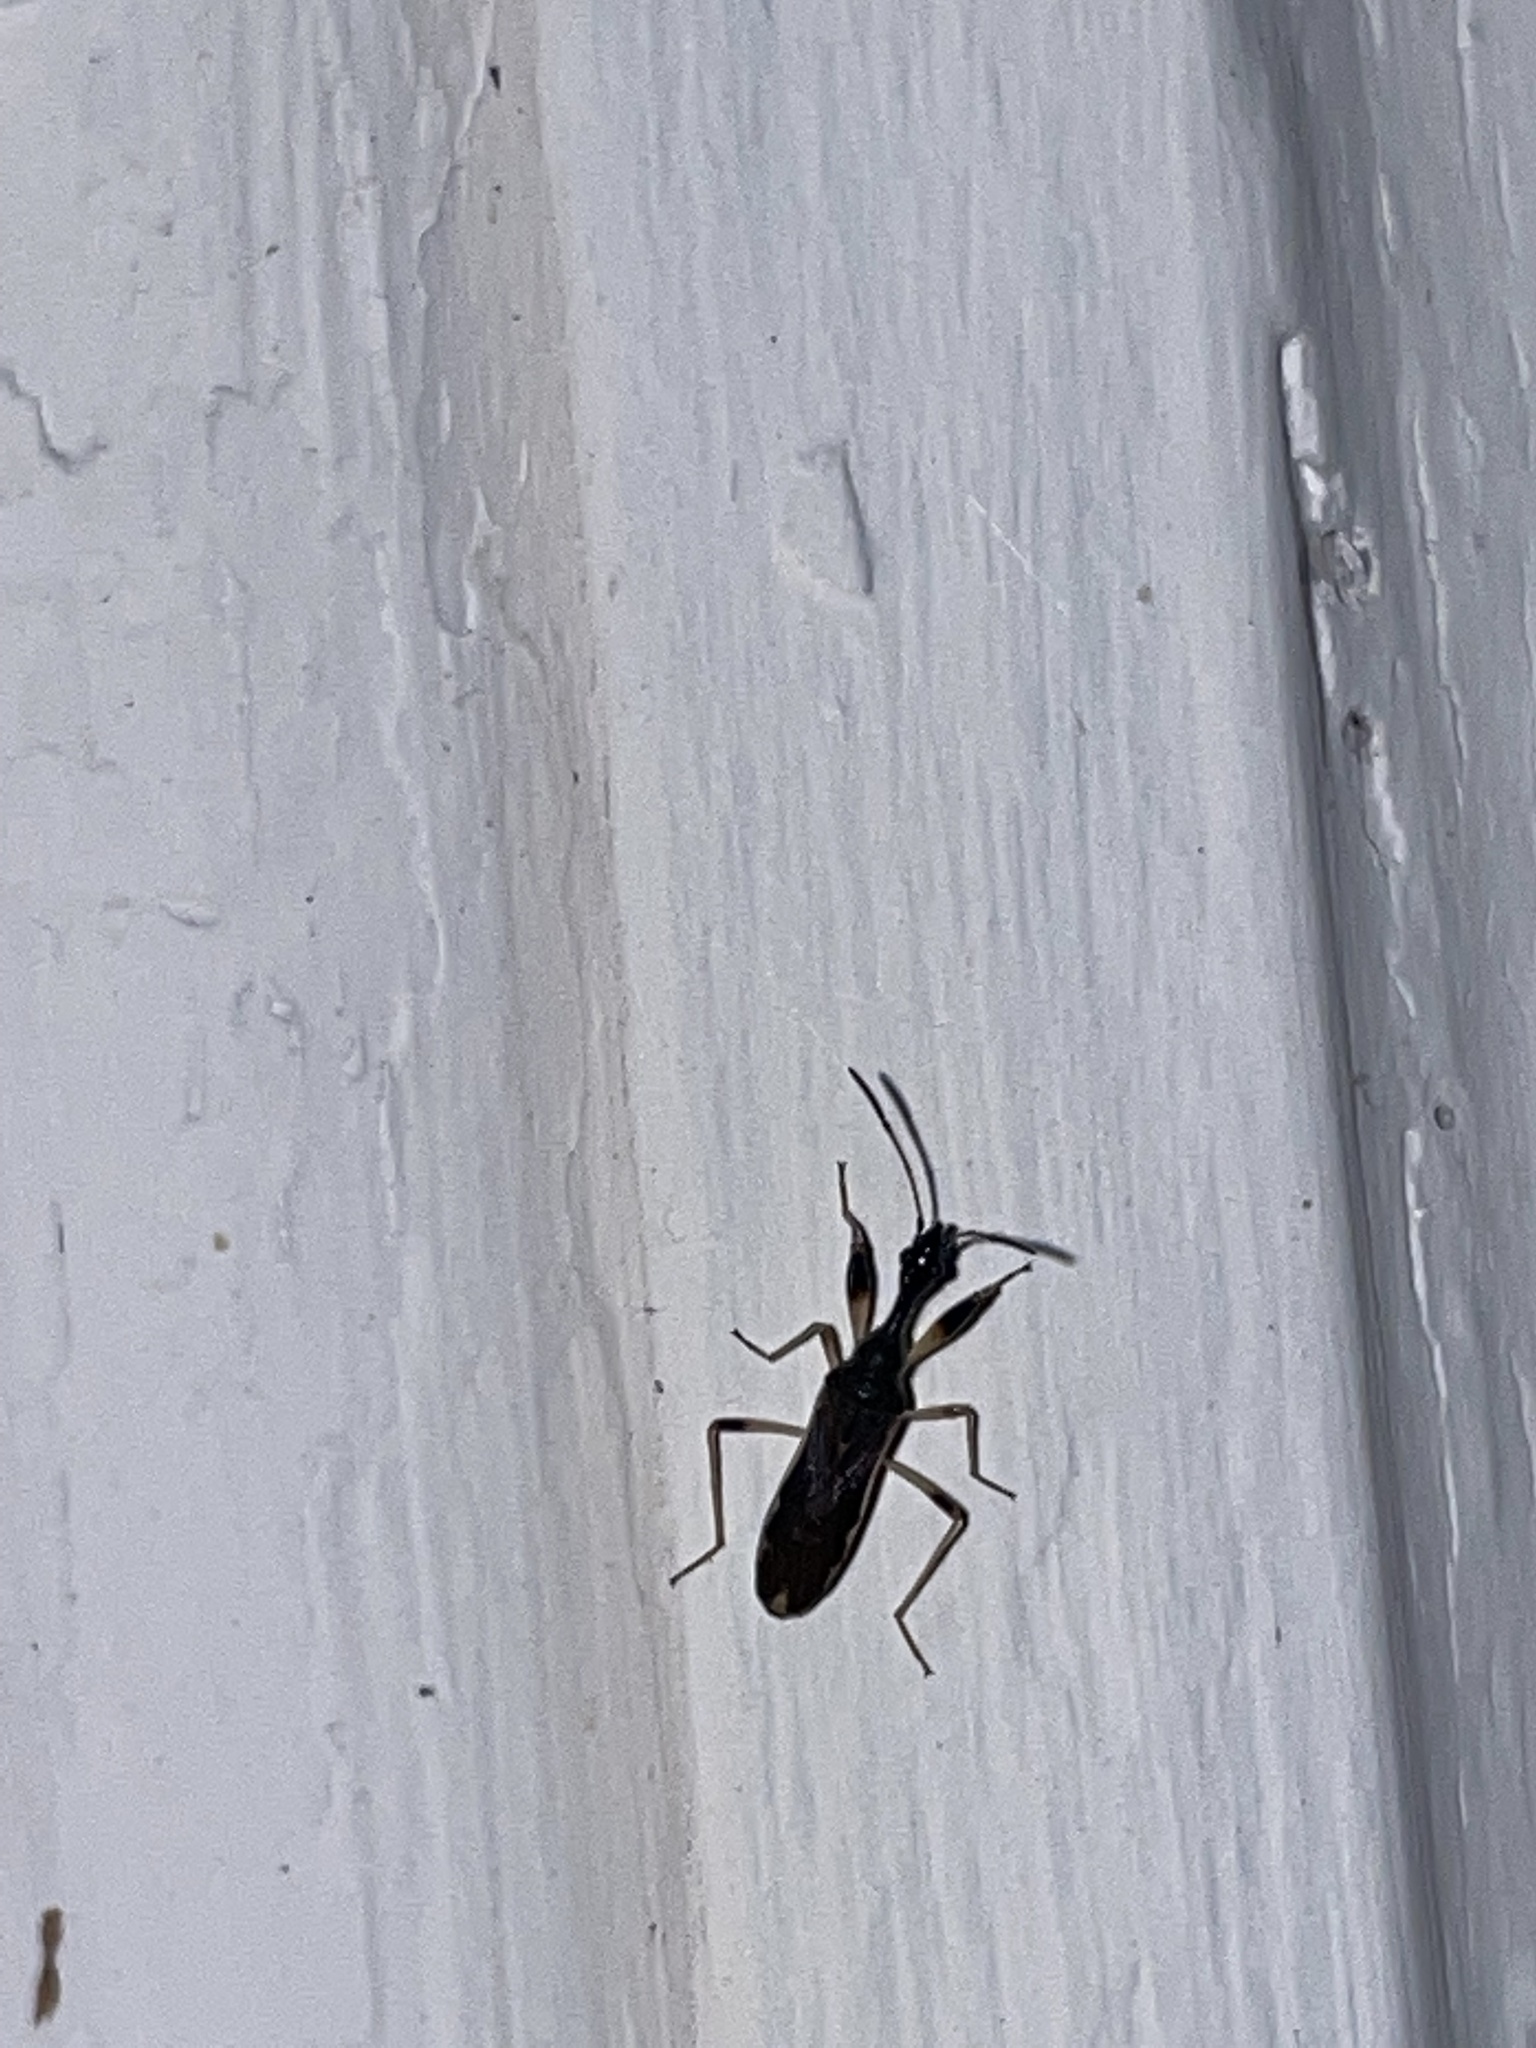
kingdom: Animalia
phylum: Arthropoda
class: Insecta
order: Hemiptera
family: Rhyparochromidae
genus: Myodocha
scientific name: Myodocha serripes
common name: Long-necked seed bug
